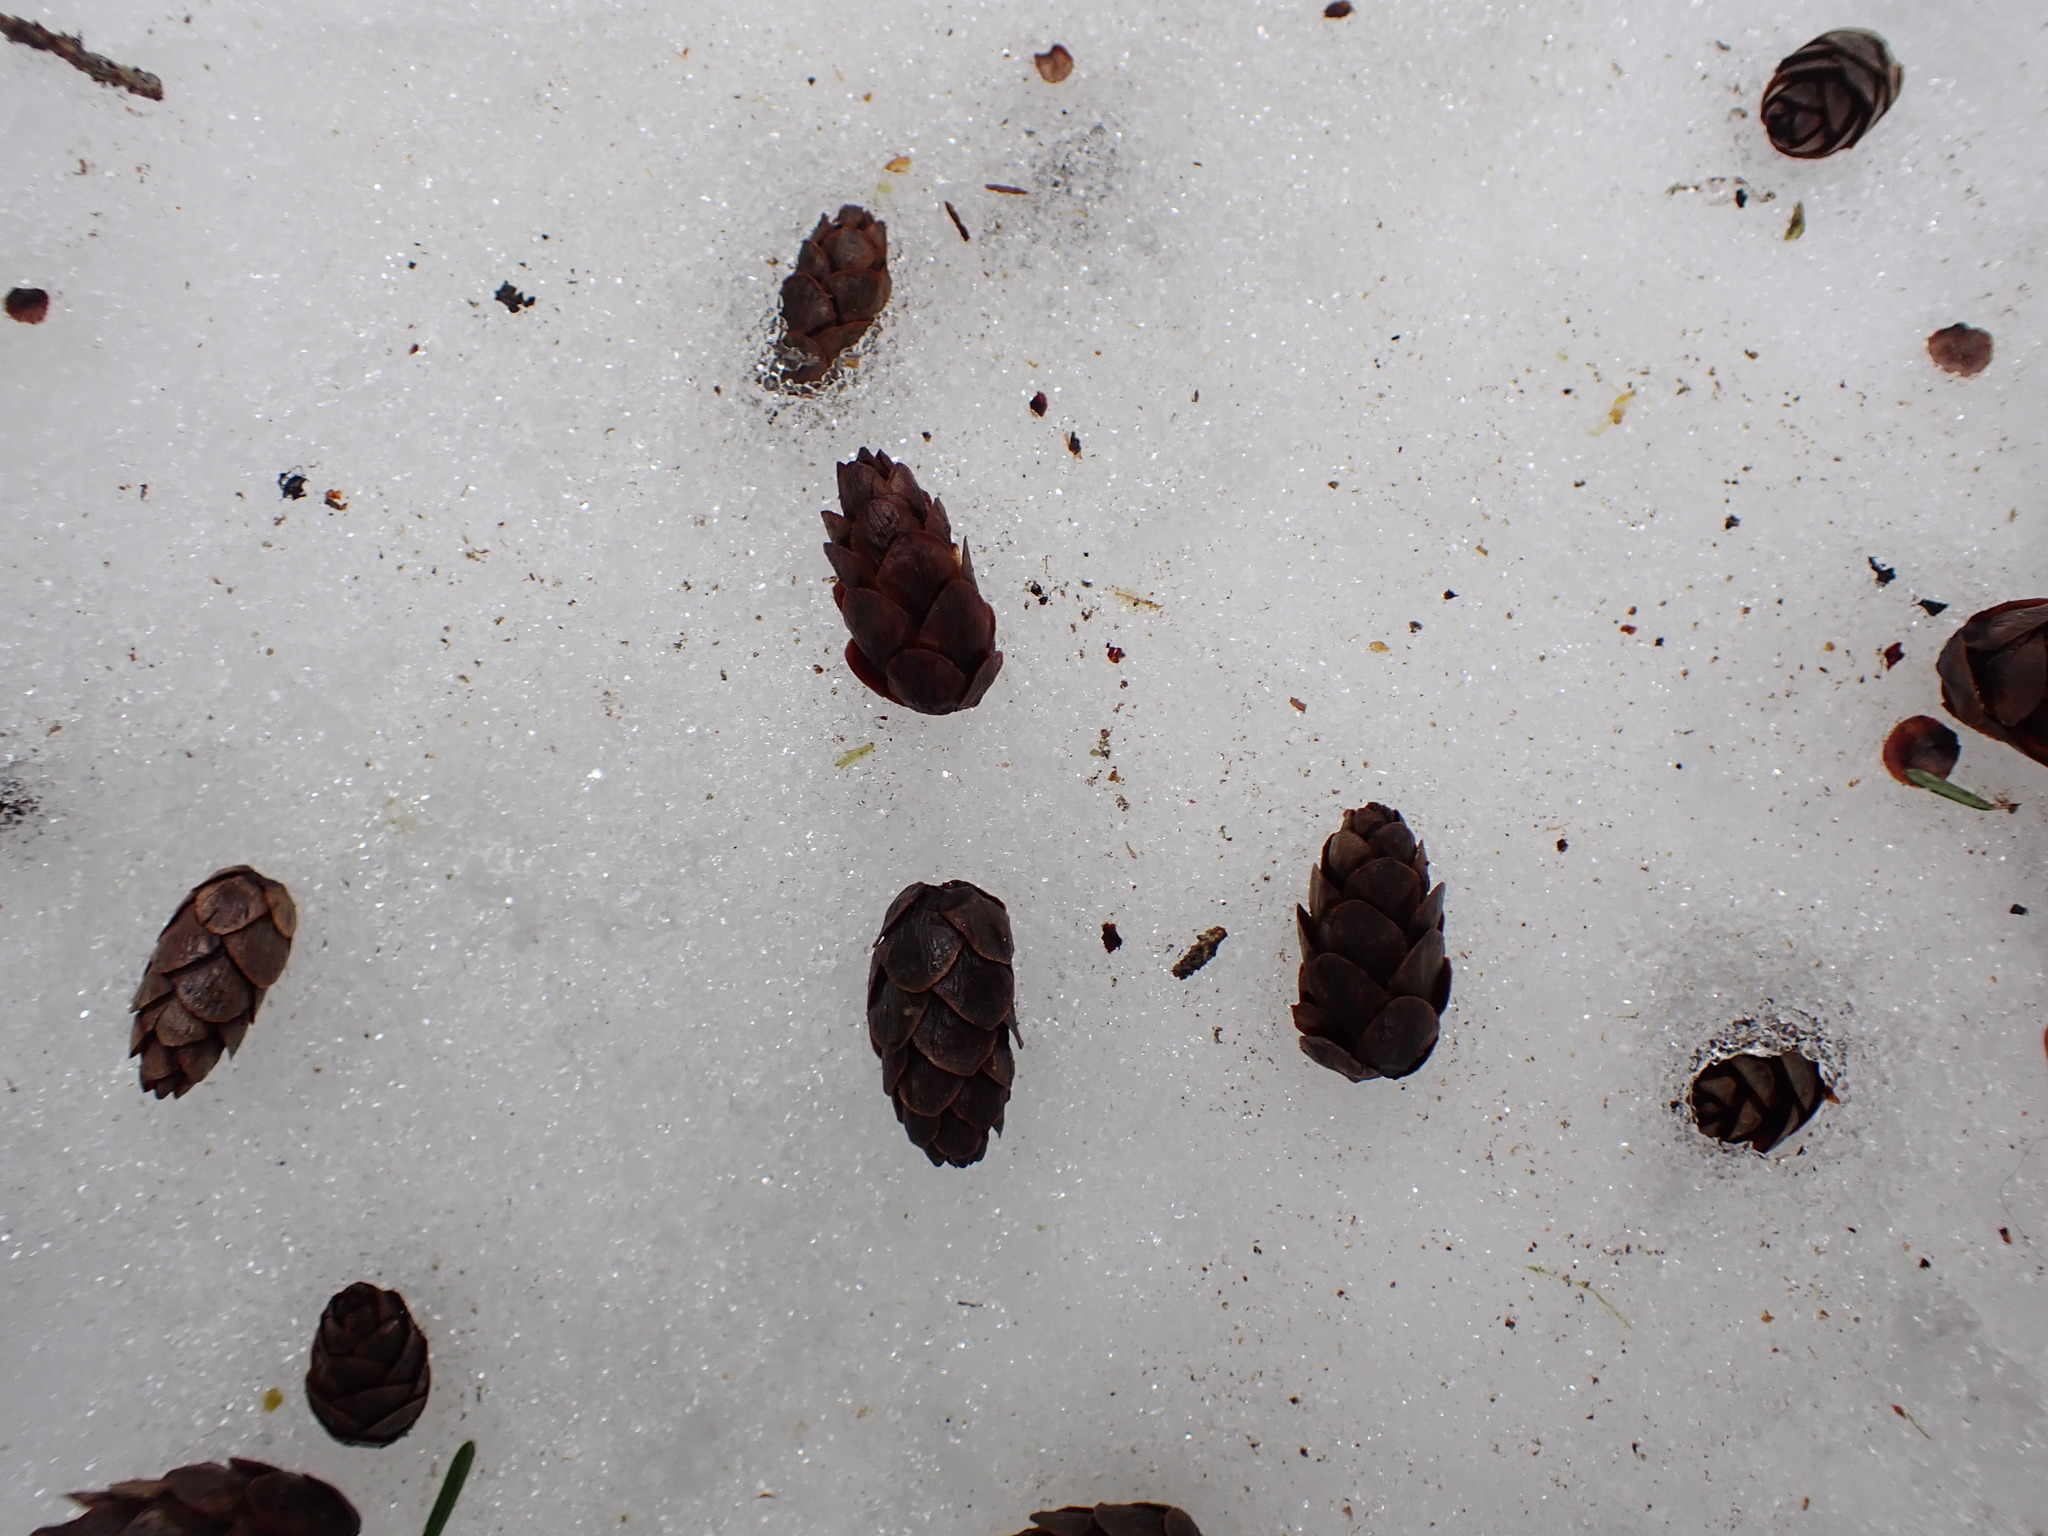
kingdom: Plantae
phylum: Tracheophyta
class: Pinopsida
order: Pinales
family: Pinaceae
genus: Tsuga
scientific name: Tsuga heterophylla
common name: Western hemlock
